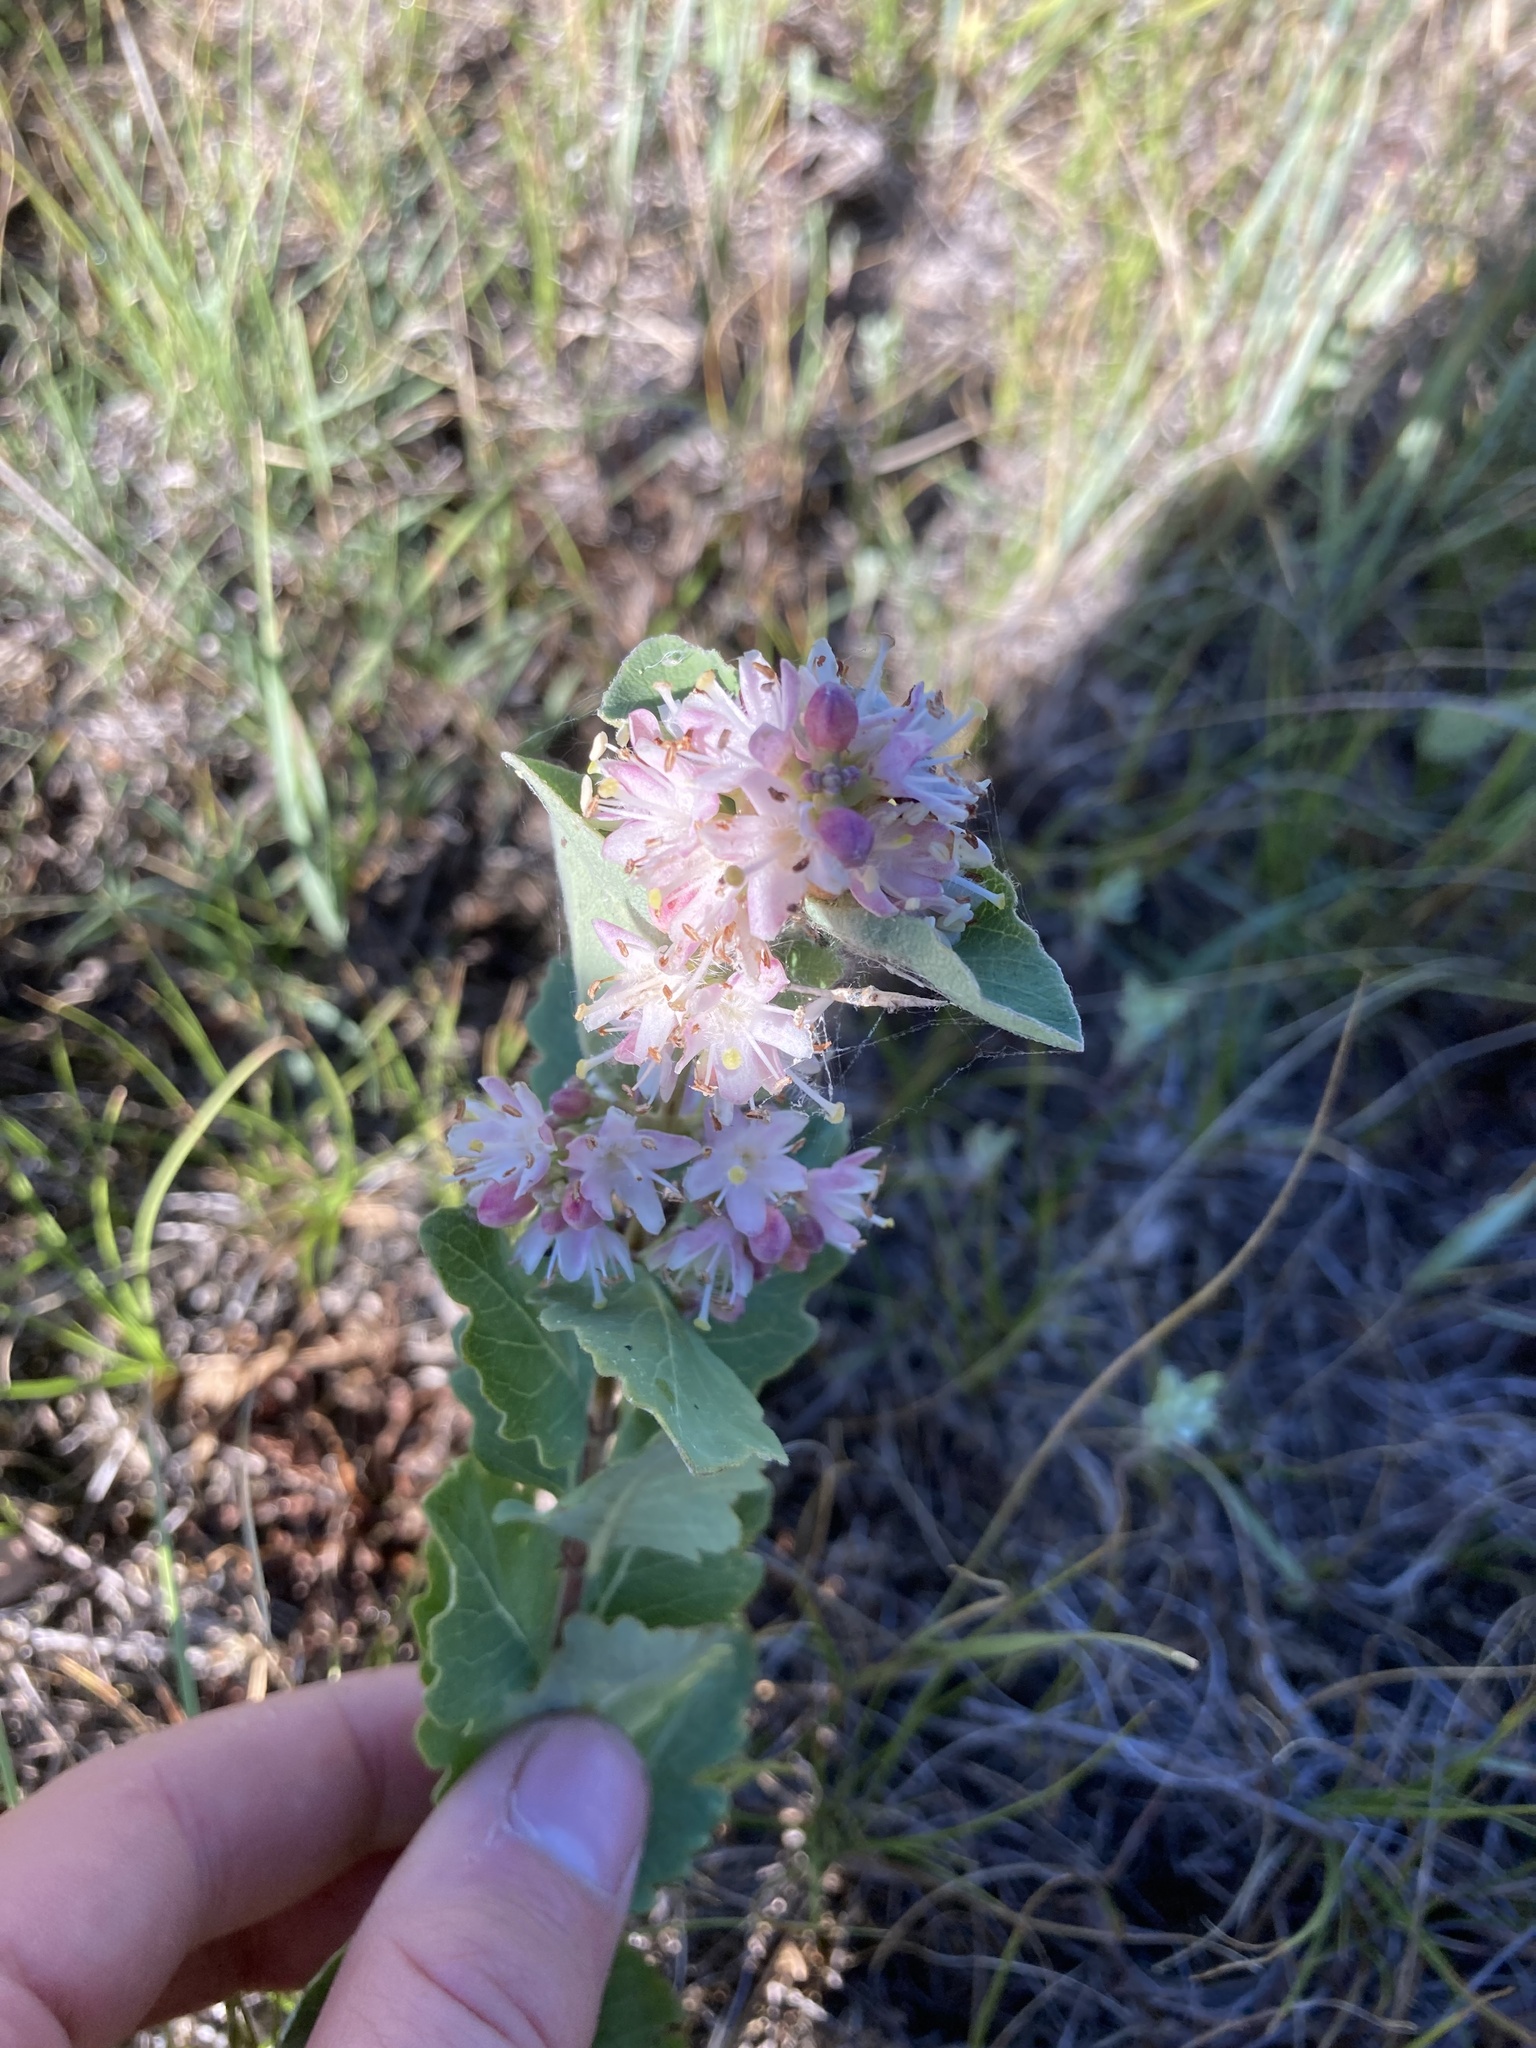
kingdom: Plantae
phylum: Tracheophyta
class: Magnoliopsida
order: Dipsacales
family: Caprifoliaceae
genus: Symphoricarpos
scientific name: Symphoricarpos occidentalis
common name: Wolfberry
